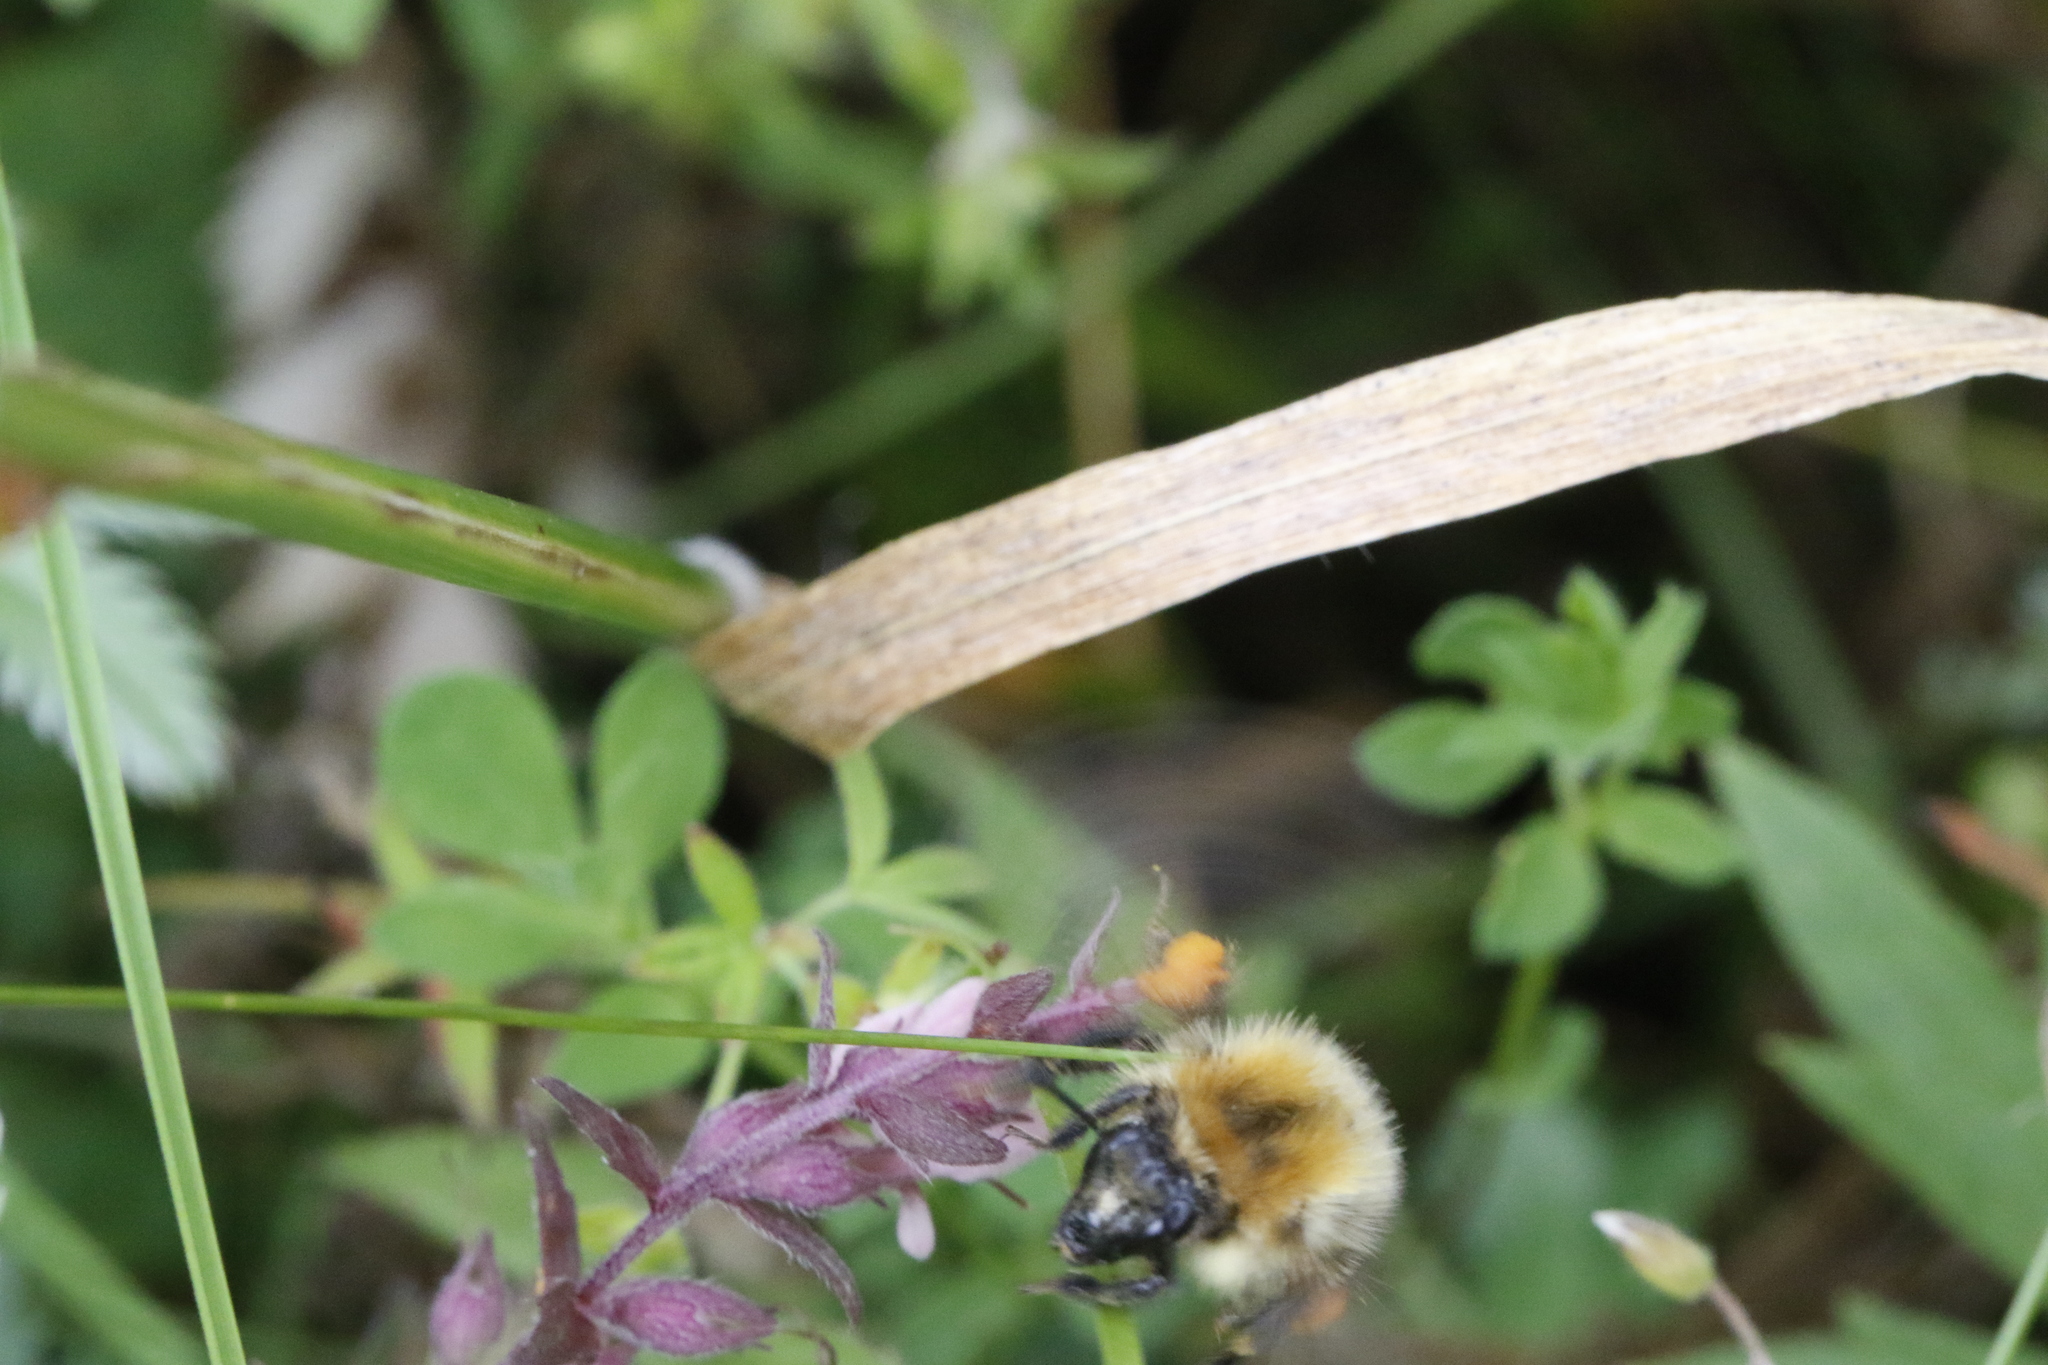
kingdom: Animalia
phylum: Arthropoda
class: Insecta
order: Hymenoptera
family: Apidae
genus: Bombus
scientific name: Bombus pascuorum
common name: Common carder bee
